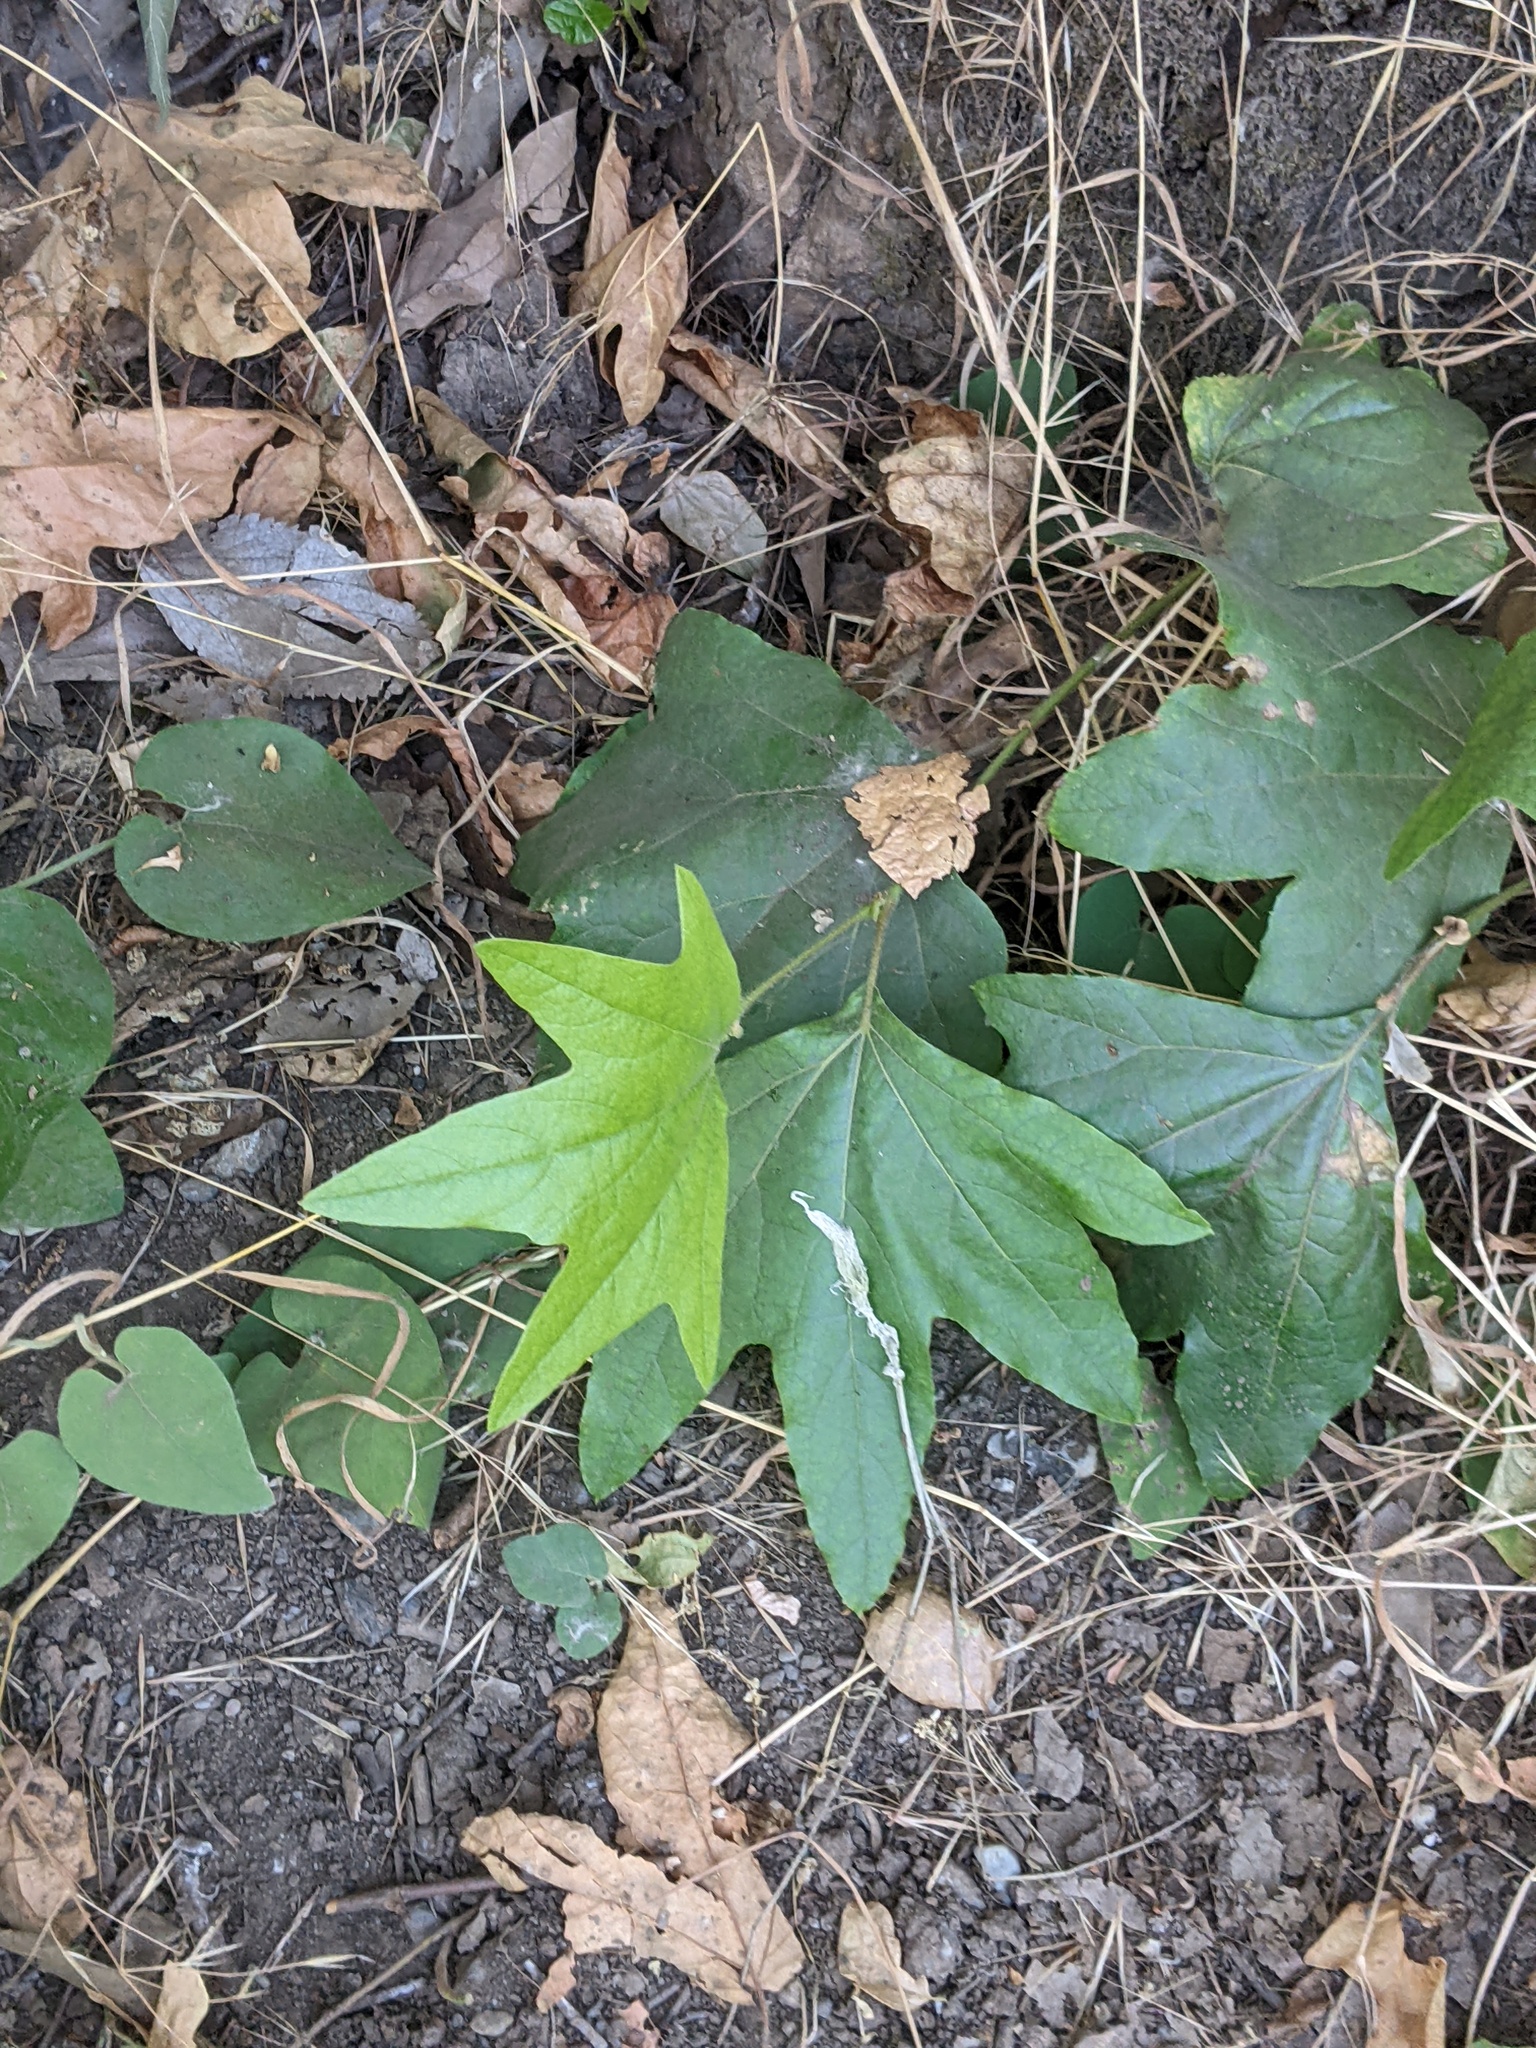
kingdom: Plantae
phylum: Tracheophyta
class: Magnoliopsida
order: Proteales
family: Platanaceae
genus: Platanus
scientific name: Platanus racemosa
